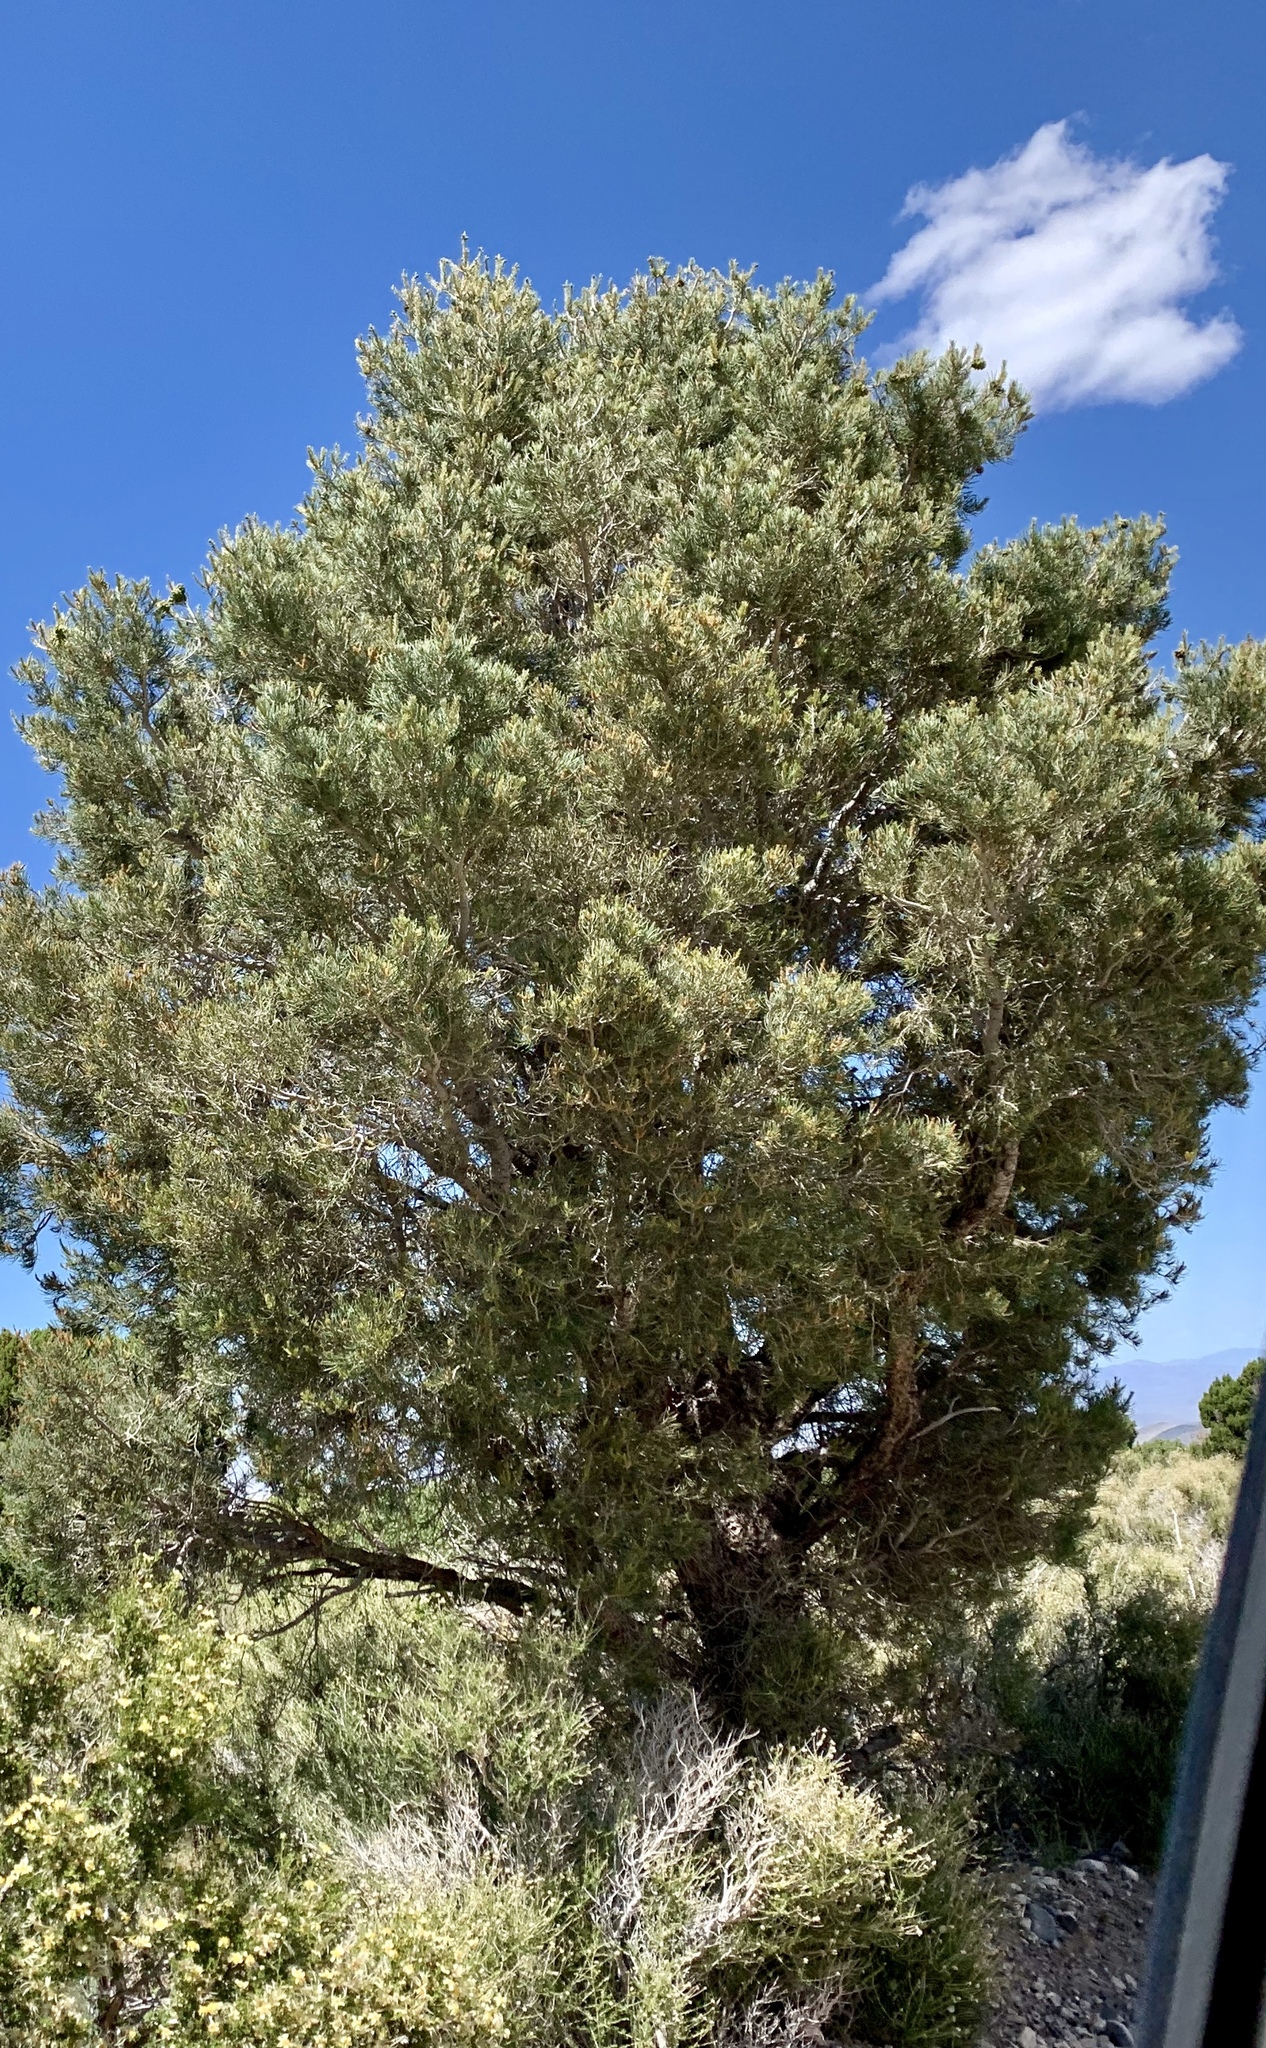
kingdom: Plantae
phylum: Tracheophyta
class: Pinopsida
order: Pinales
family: Pinaceae
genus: Pinus
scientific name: Pinus monophylla
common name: One-leaved nut pine
